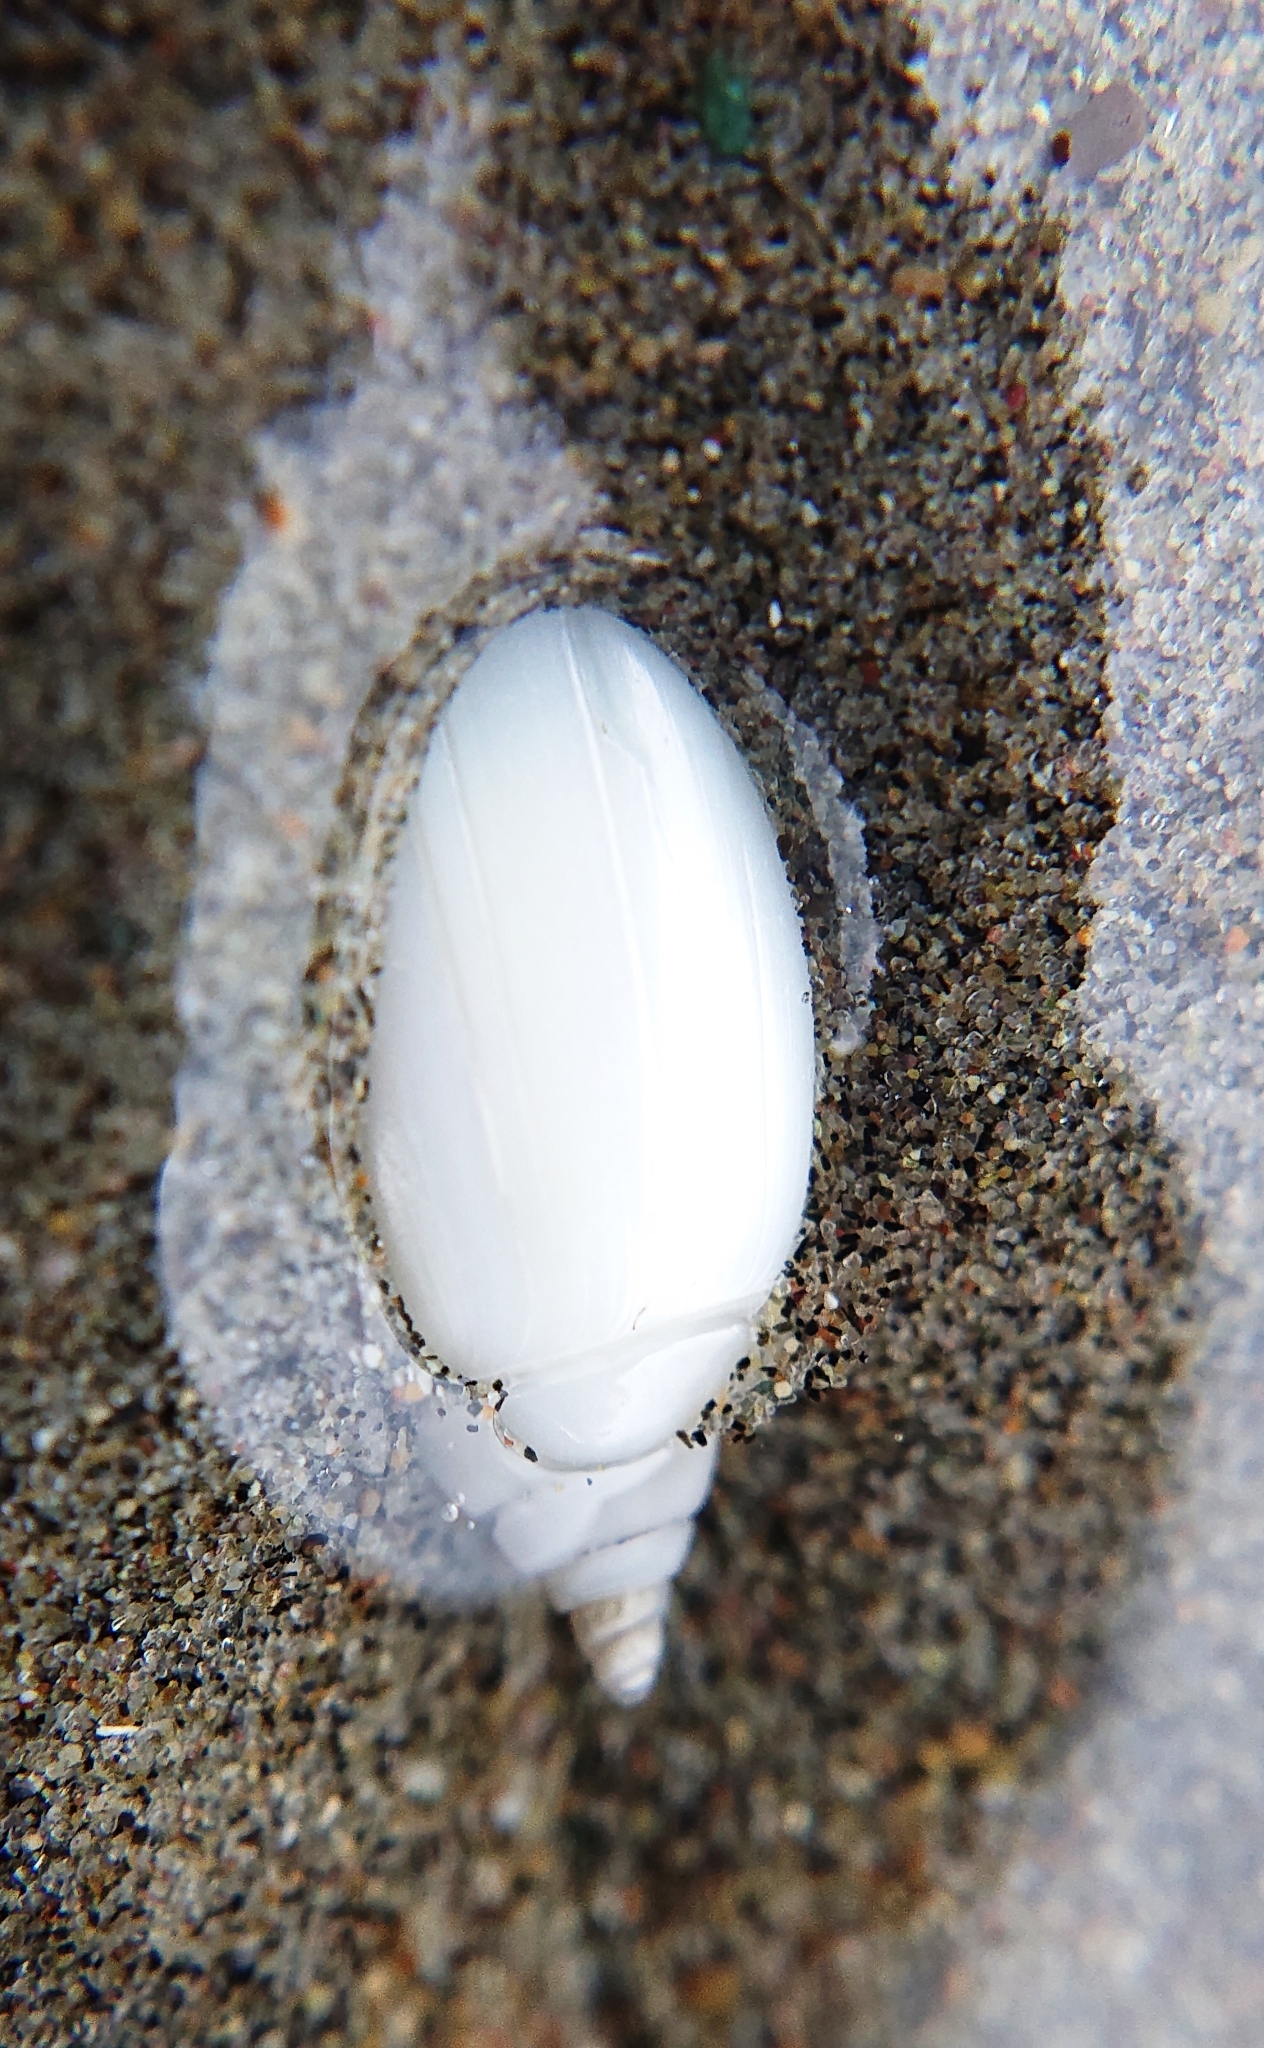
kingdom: Animalia
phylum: Mollusca
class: Gastropoda
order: Neogastropoda
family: Olividae
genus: Oliva
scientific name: Oliva undatella
